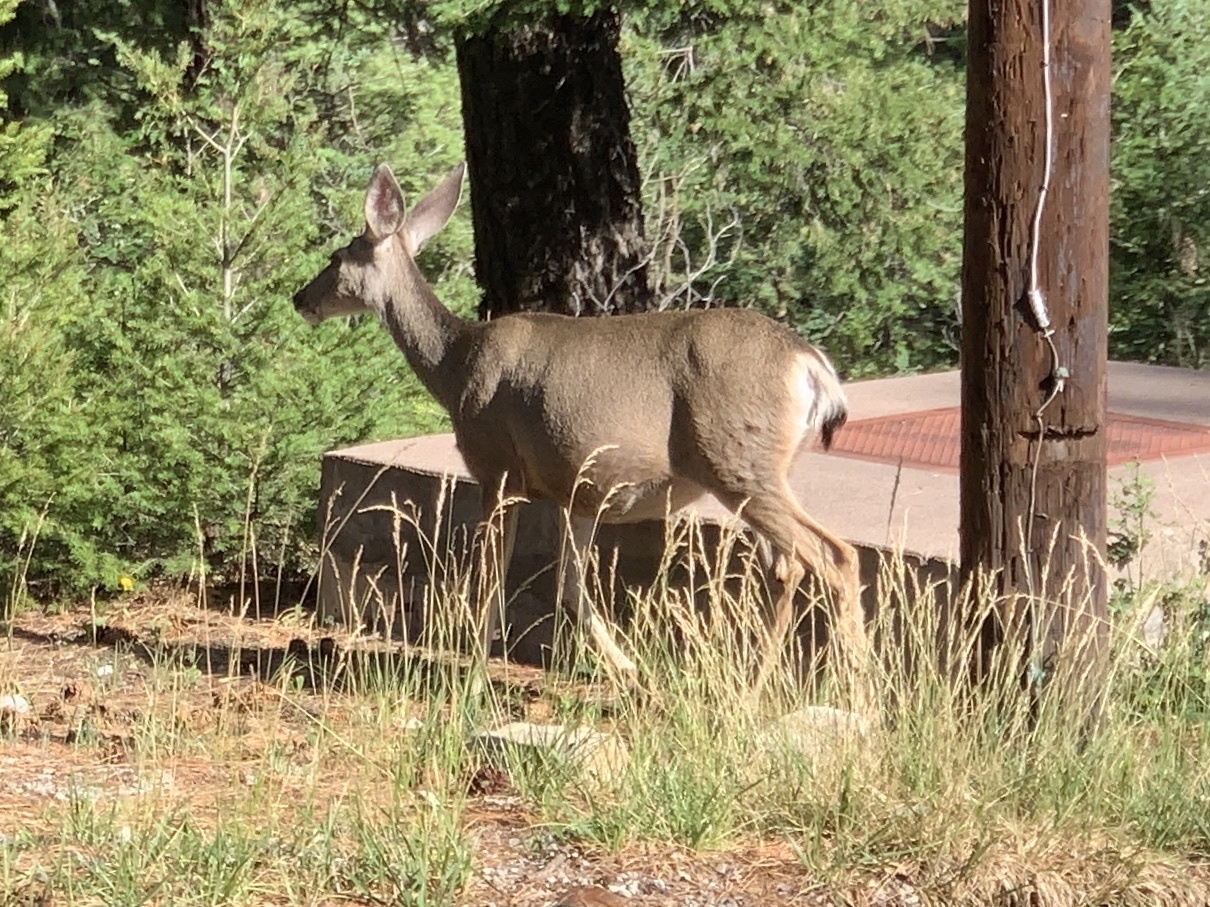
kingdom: Animalia
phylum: Chordata
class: Mammalia
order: Artiodactyla
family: Cervidae
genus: Odocoileus
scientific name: Odocoileus hemionus
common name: Mule deer
